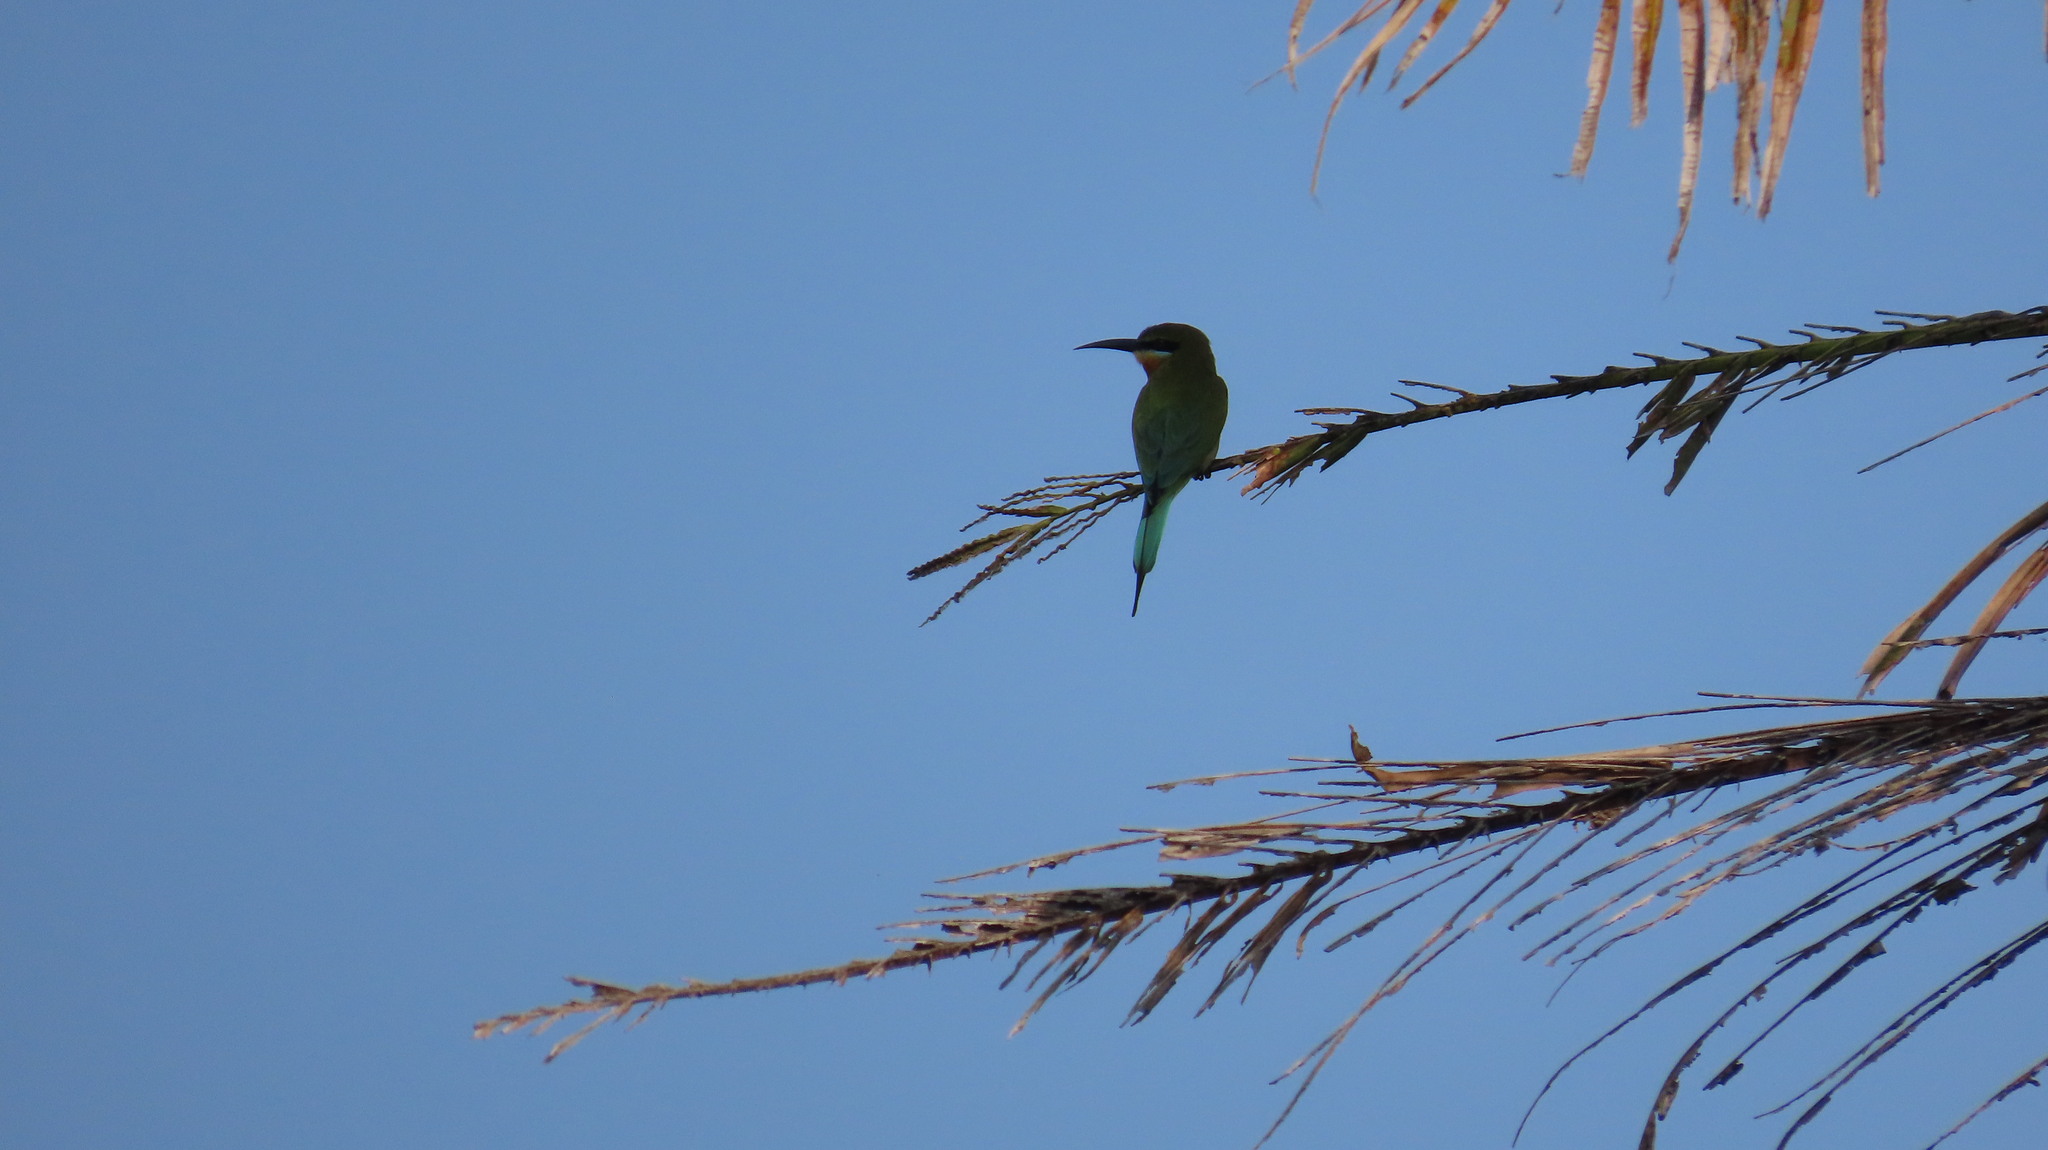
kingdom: Animalia
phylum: Chordata
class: Aves
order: Coraciiformes
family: Meropidae
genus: Merops
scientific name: Merops philippinus
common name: Blue-tailed bee-eater
